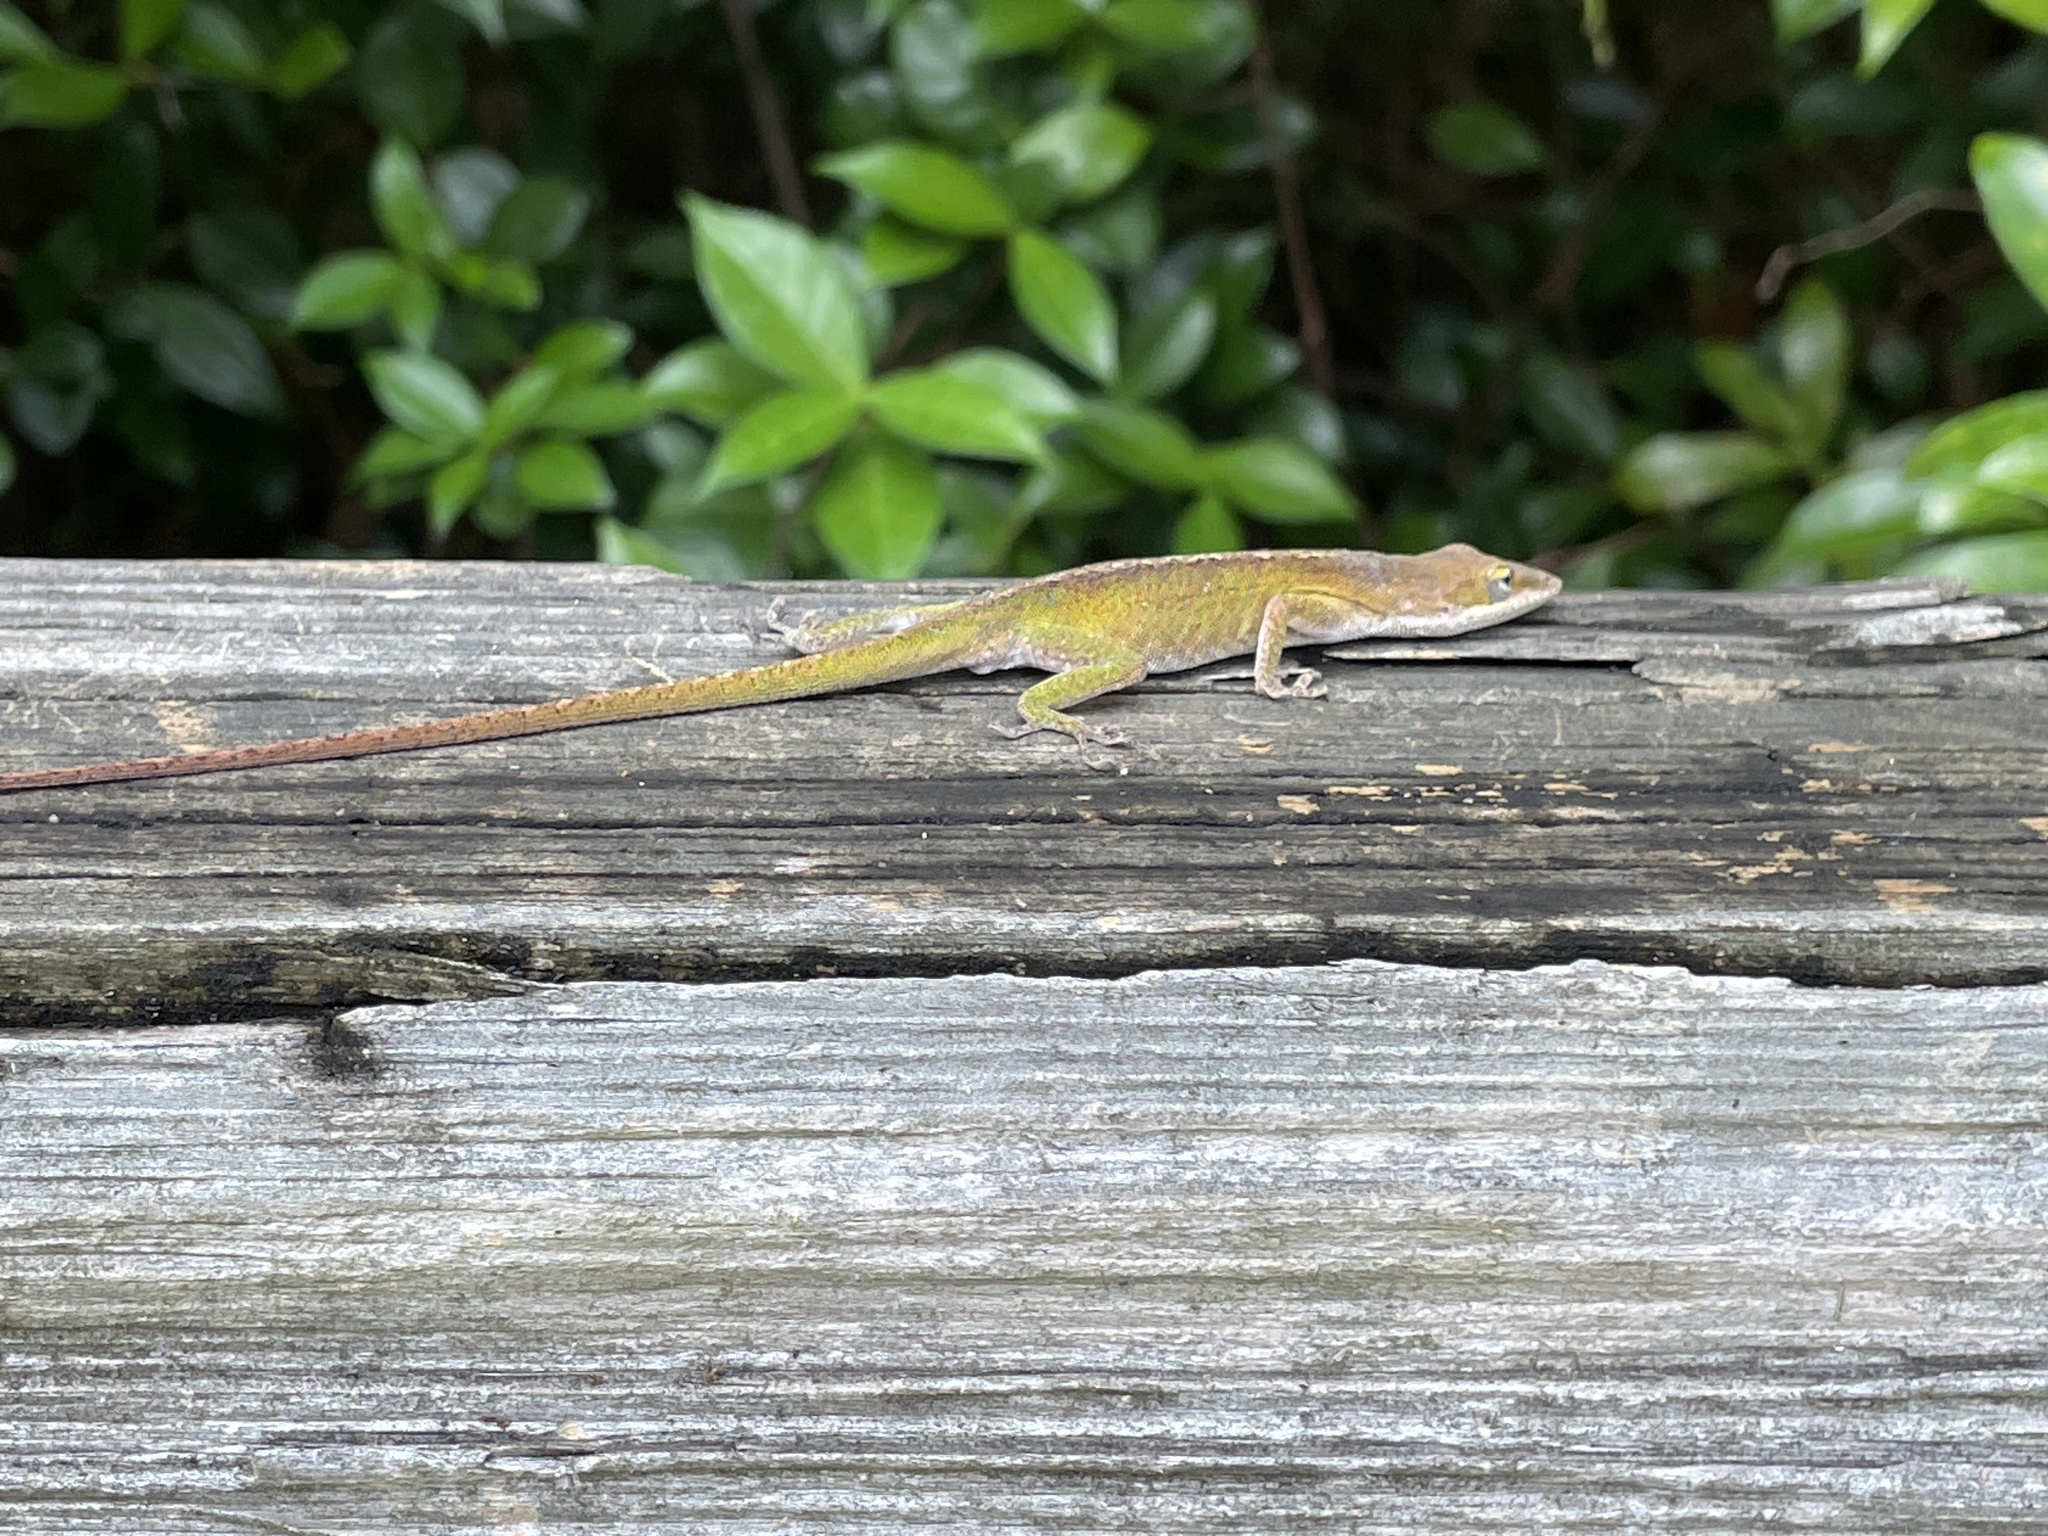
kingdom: Animalia
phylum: Chordata
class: Squamata
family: Dactyloidae
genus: Anolis
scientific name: Anolis carolinensis
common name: Green anole
